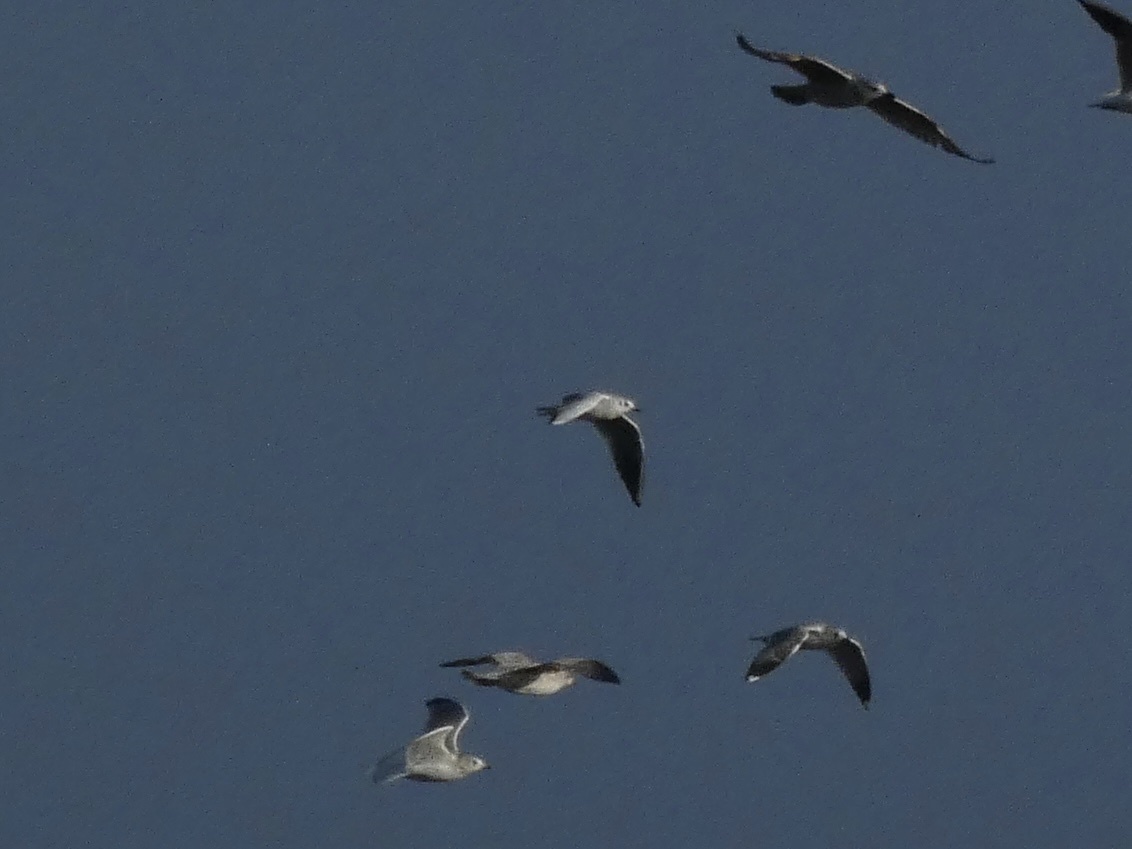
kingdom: Animalia
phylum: Chordata
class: Aves
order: Charadriiformes
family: Laridae
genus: Chroicocephalus
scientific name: Chroicocephalus ridibundus
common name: Black-headed gull
